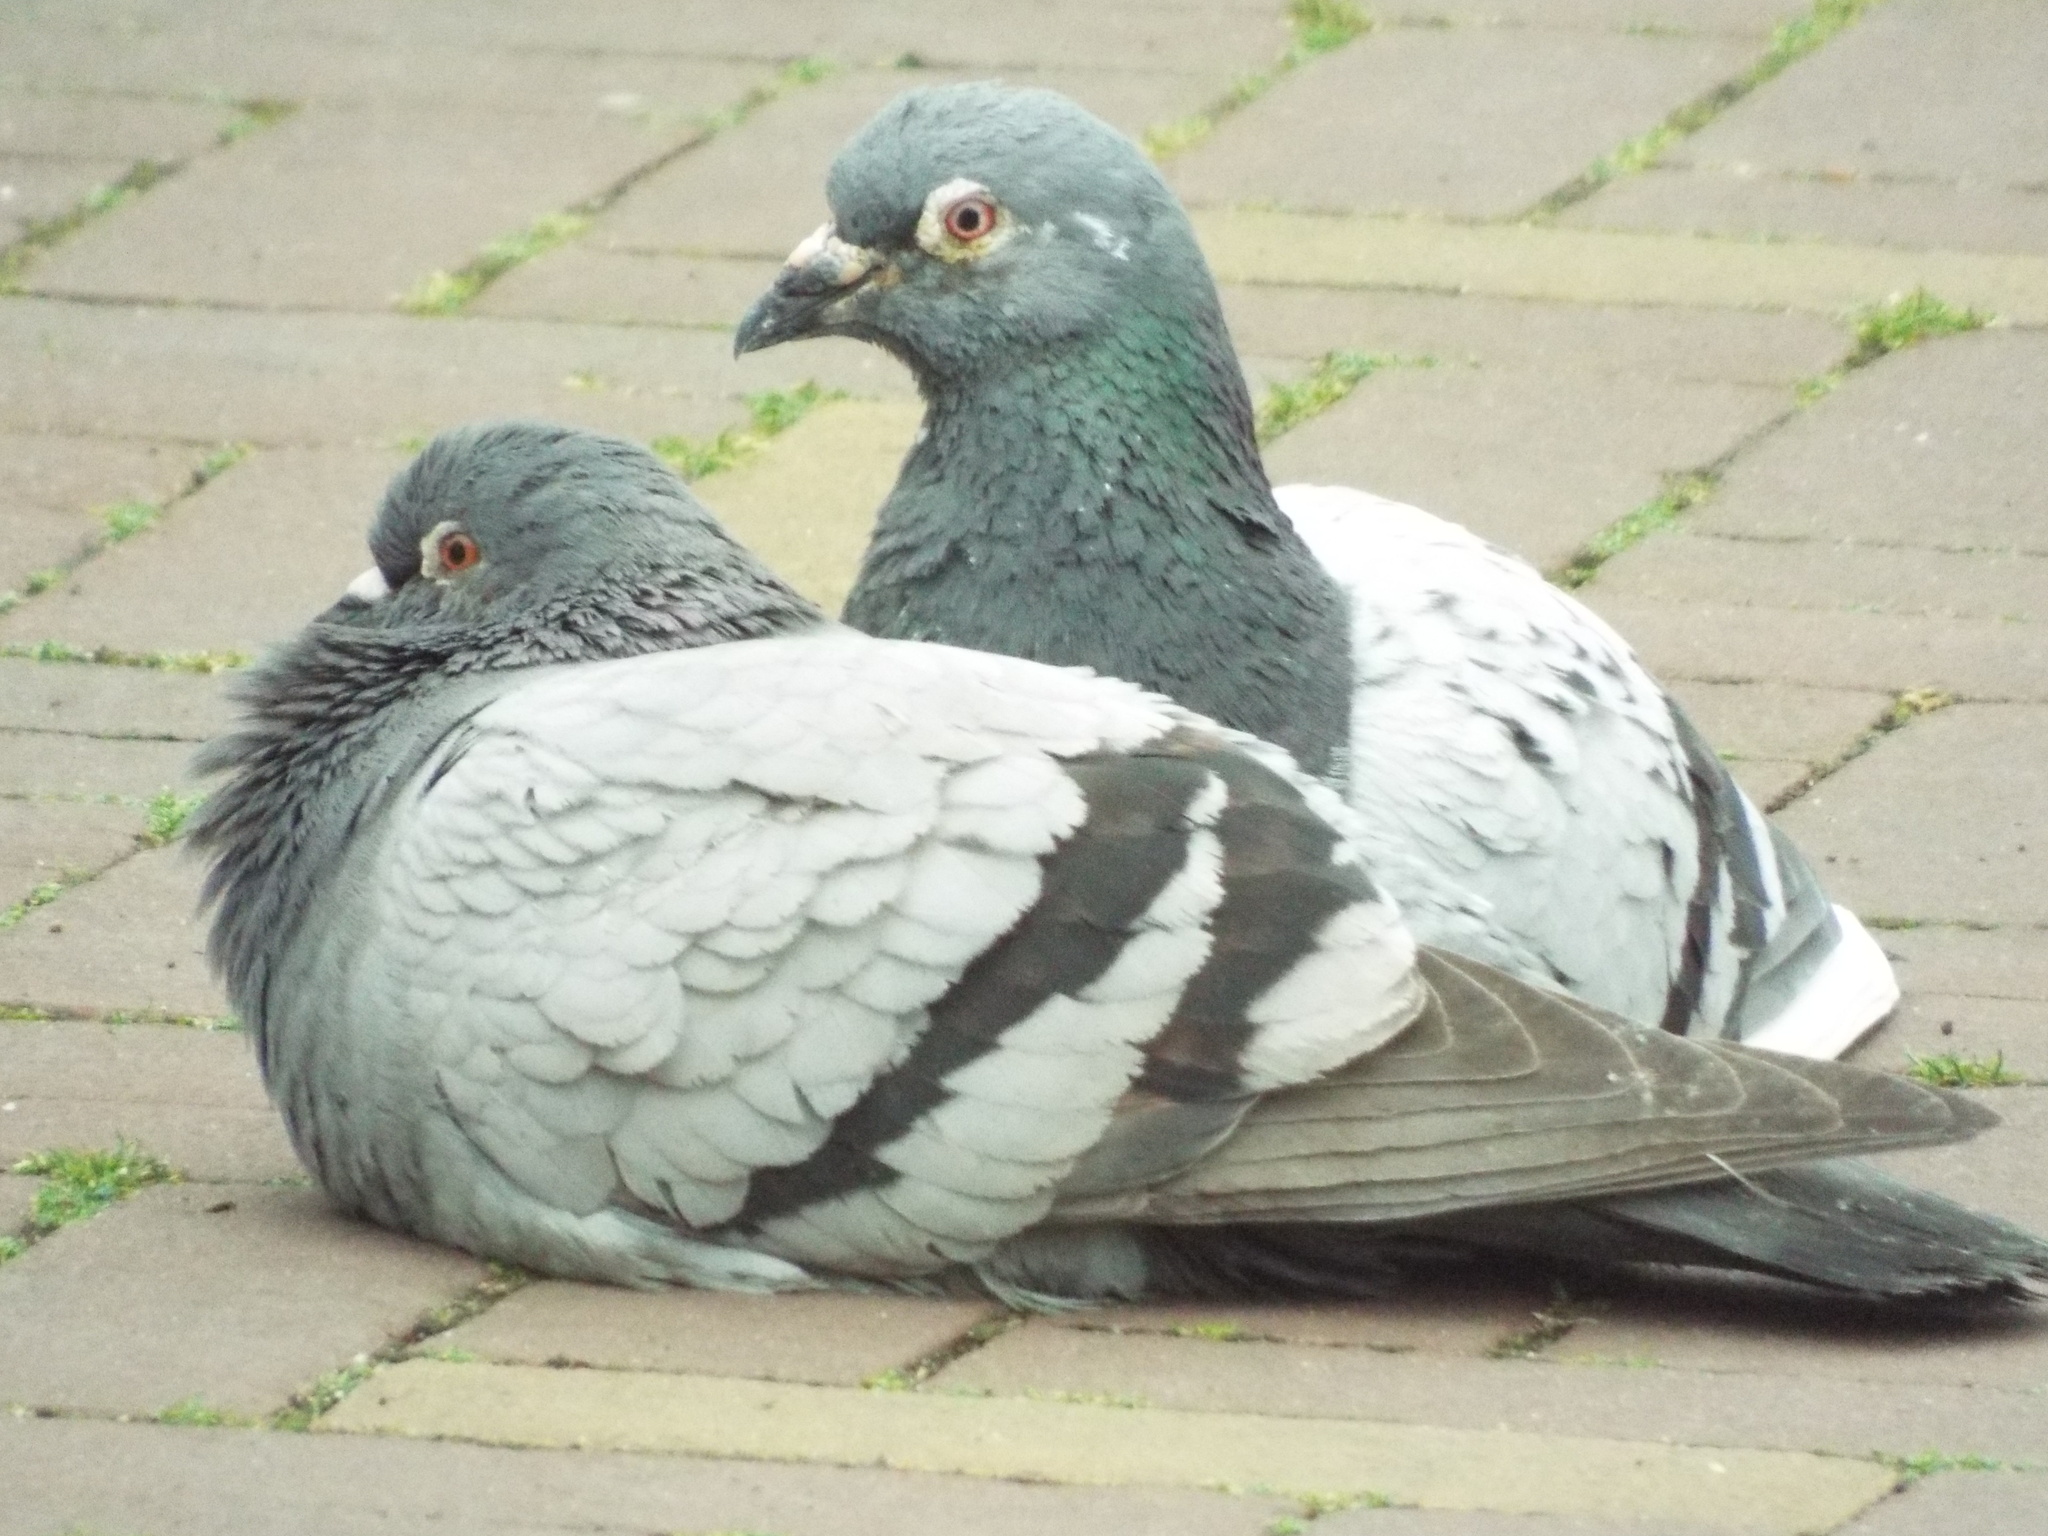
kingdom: Animalia
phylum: Chordata
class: Aves
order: Columbiformes
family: Columbidae
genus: Columba
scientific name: Columba livia
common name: Rock pigeon
